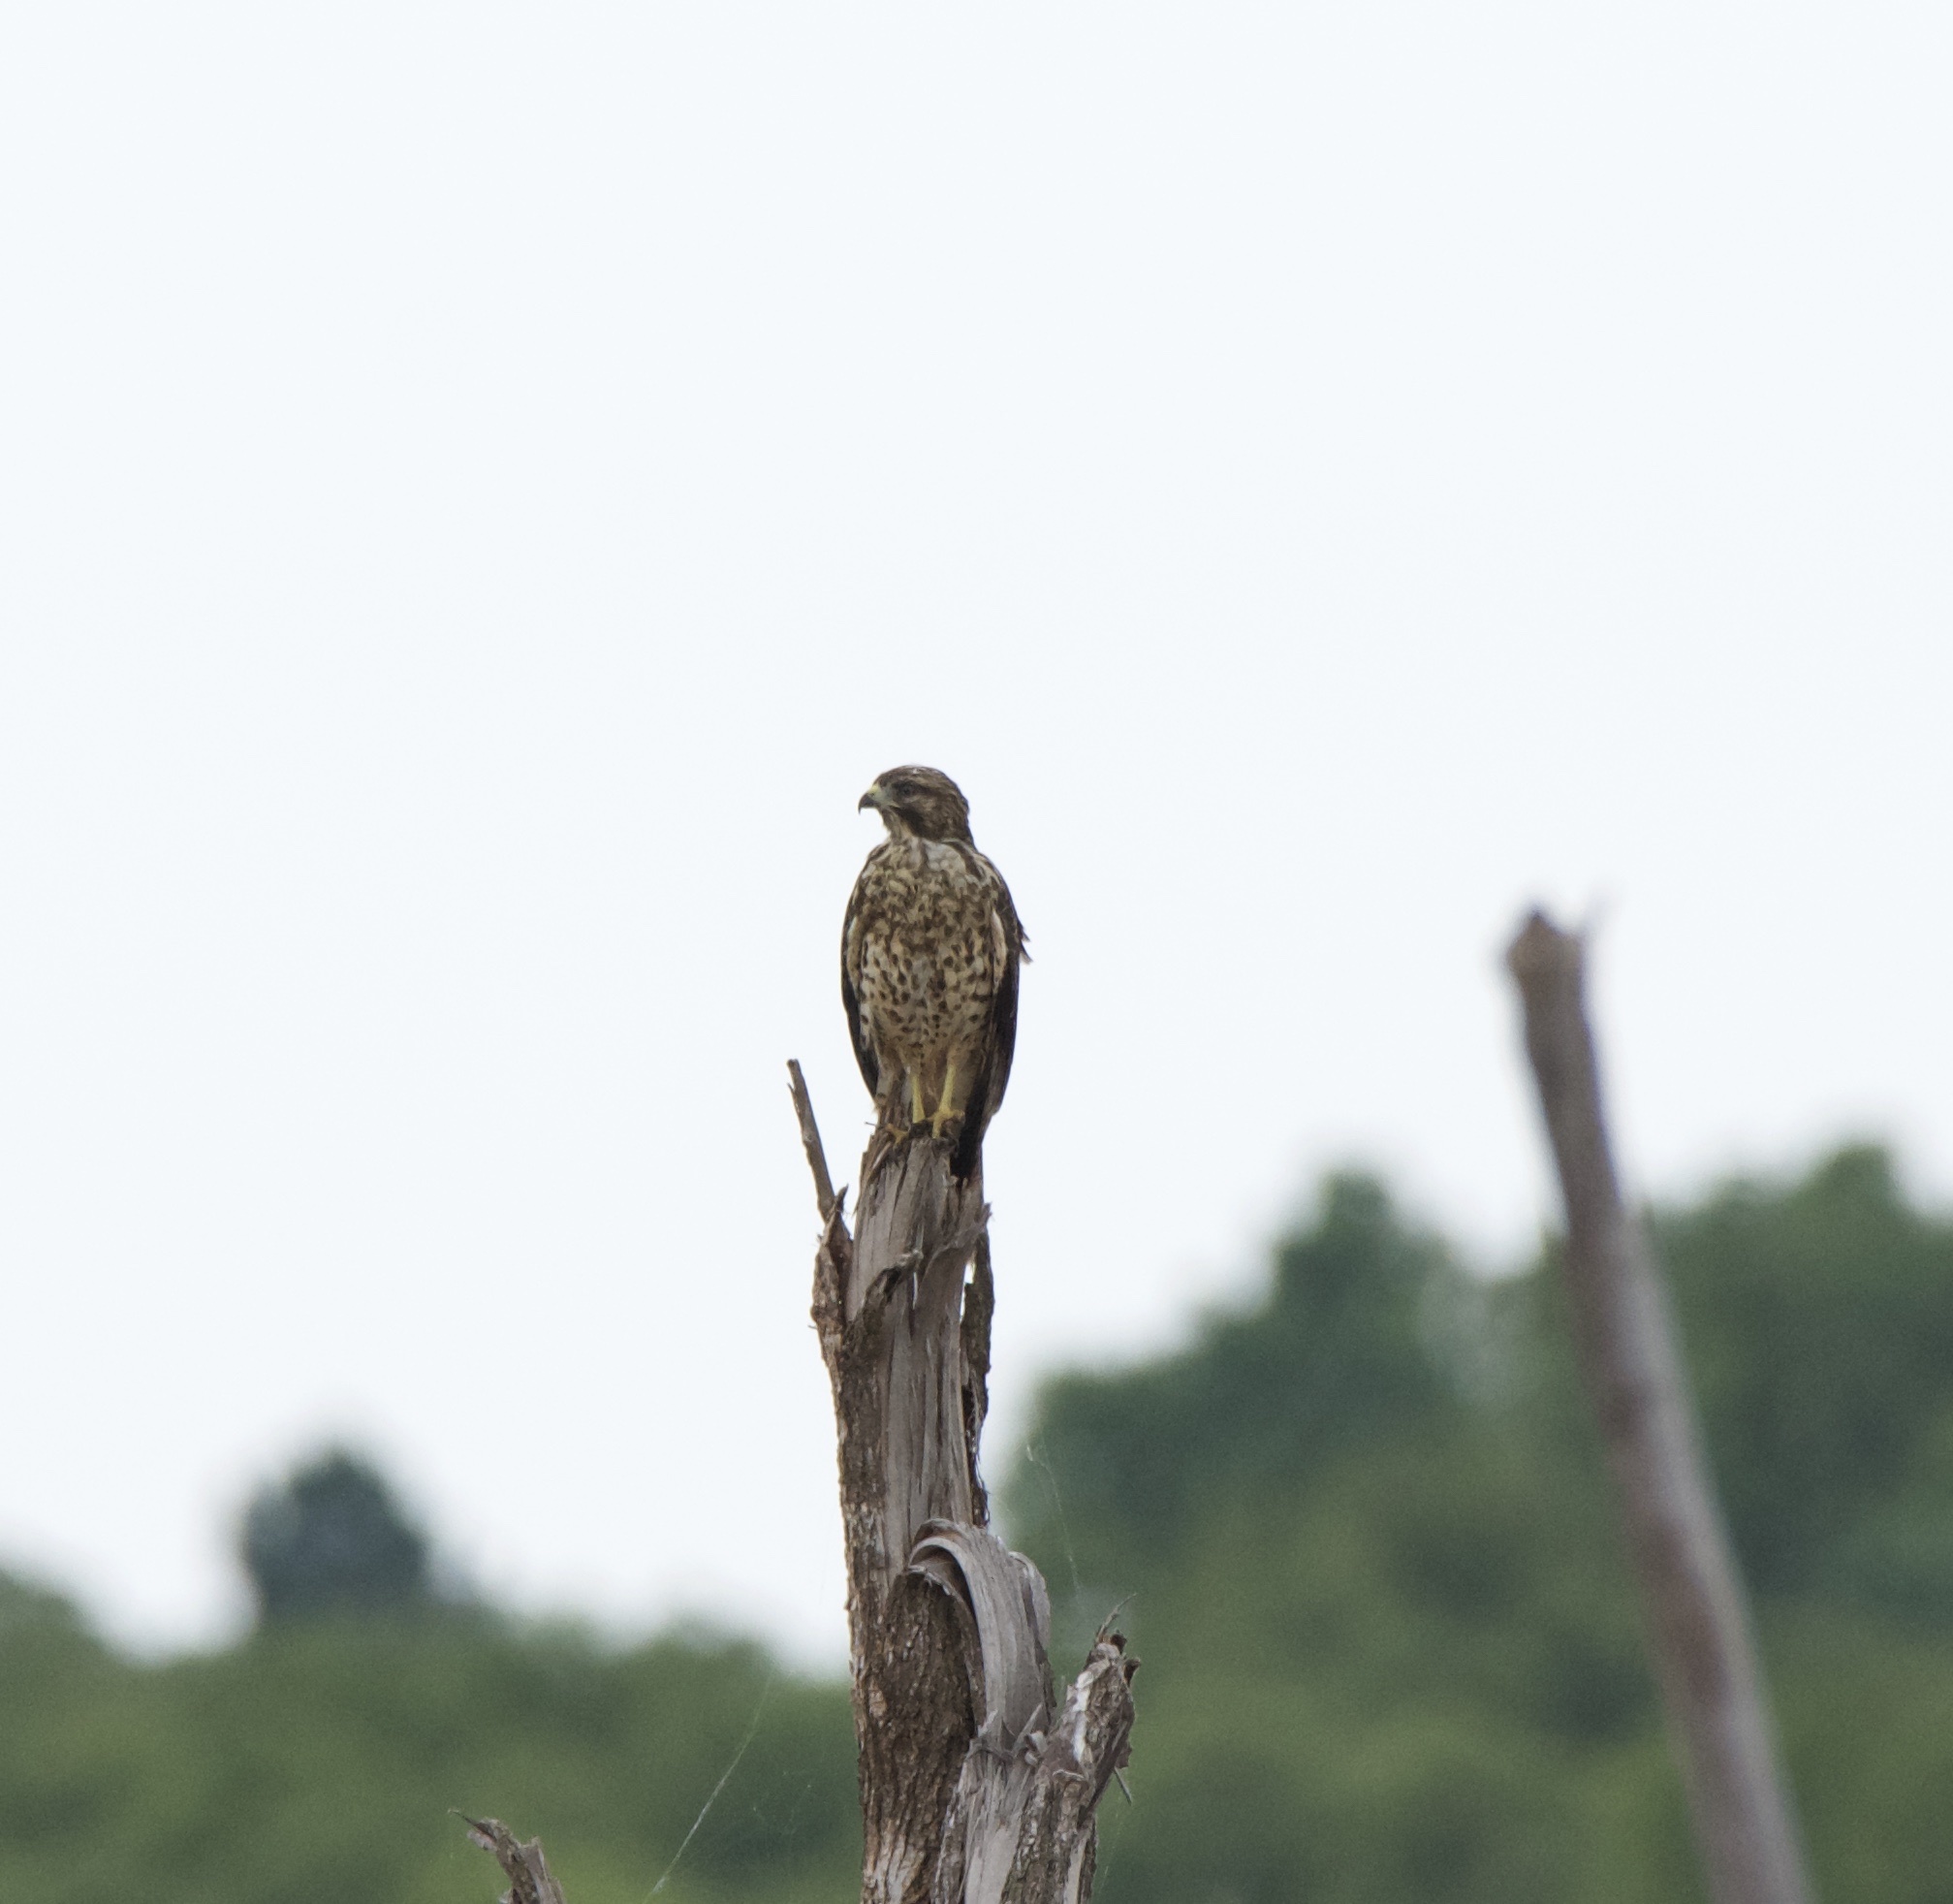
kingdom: Animalia
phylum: Chordata
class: Aves
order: Accipitriformes
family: Accipitridae
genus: Buteo
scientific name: Buteo lineatus
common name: Red-shouldered hawk
